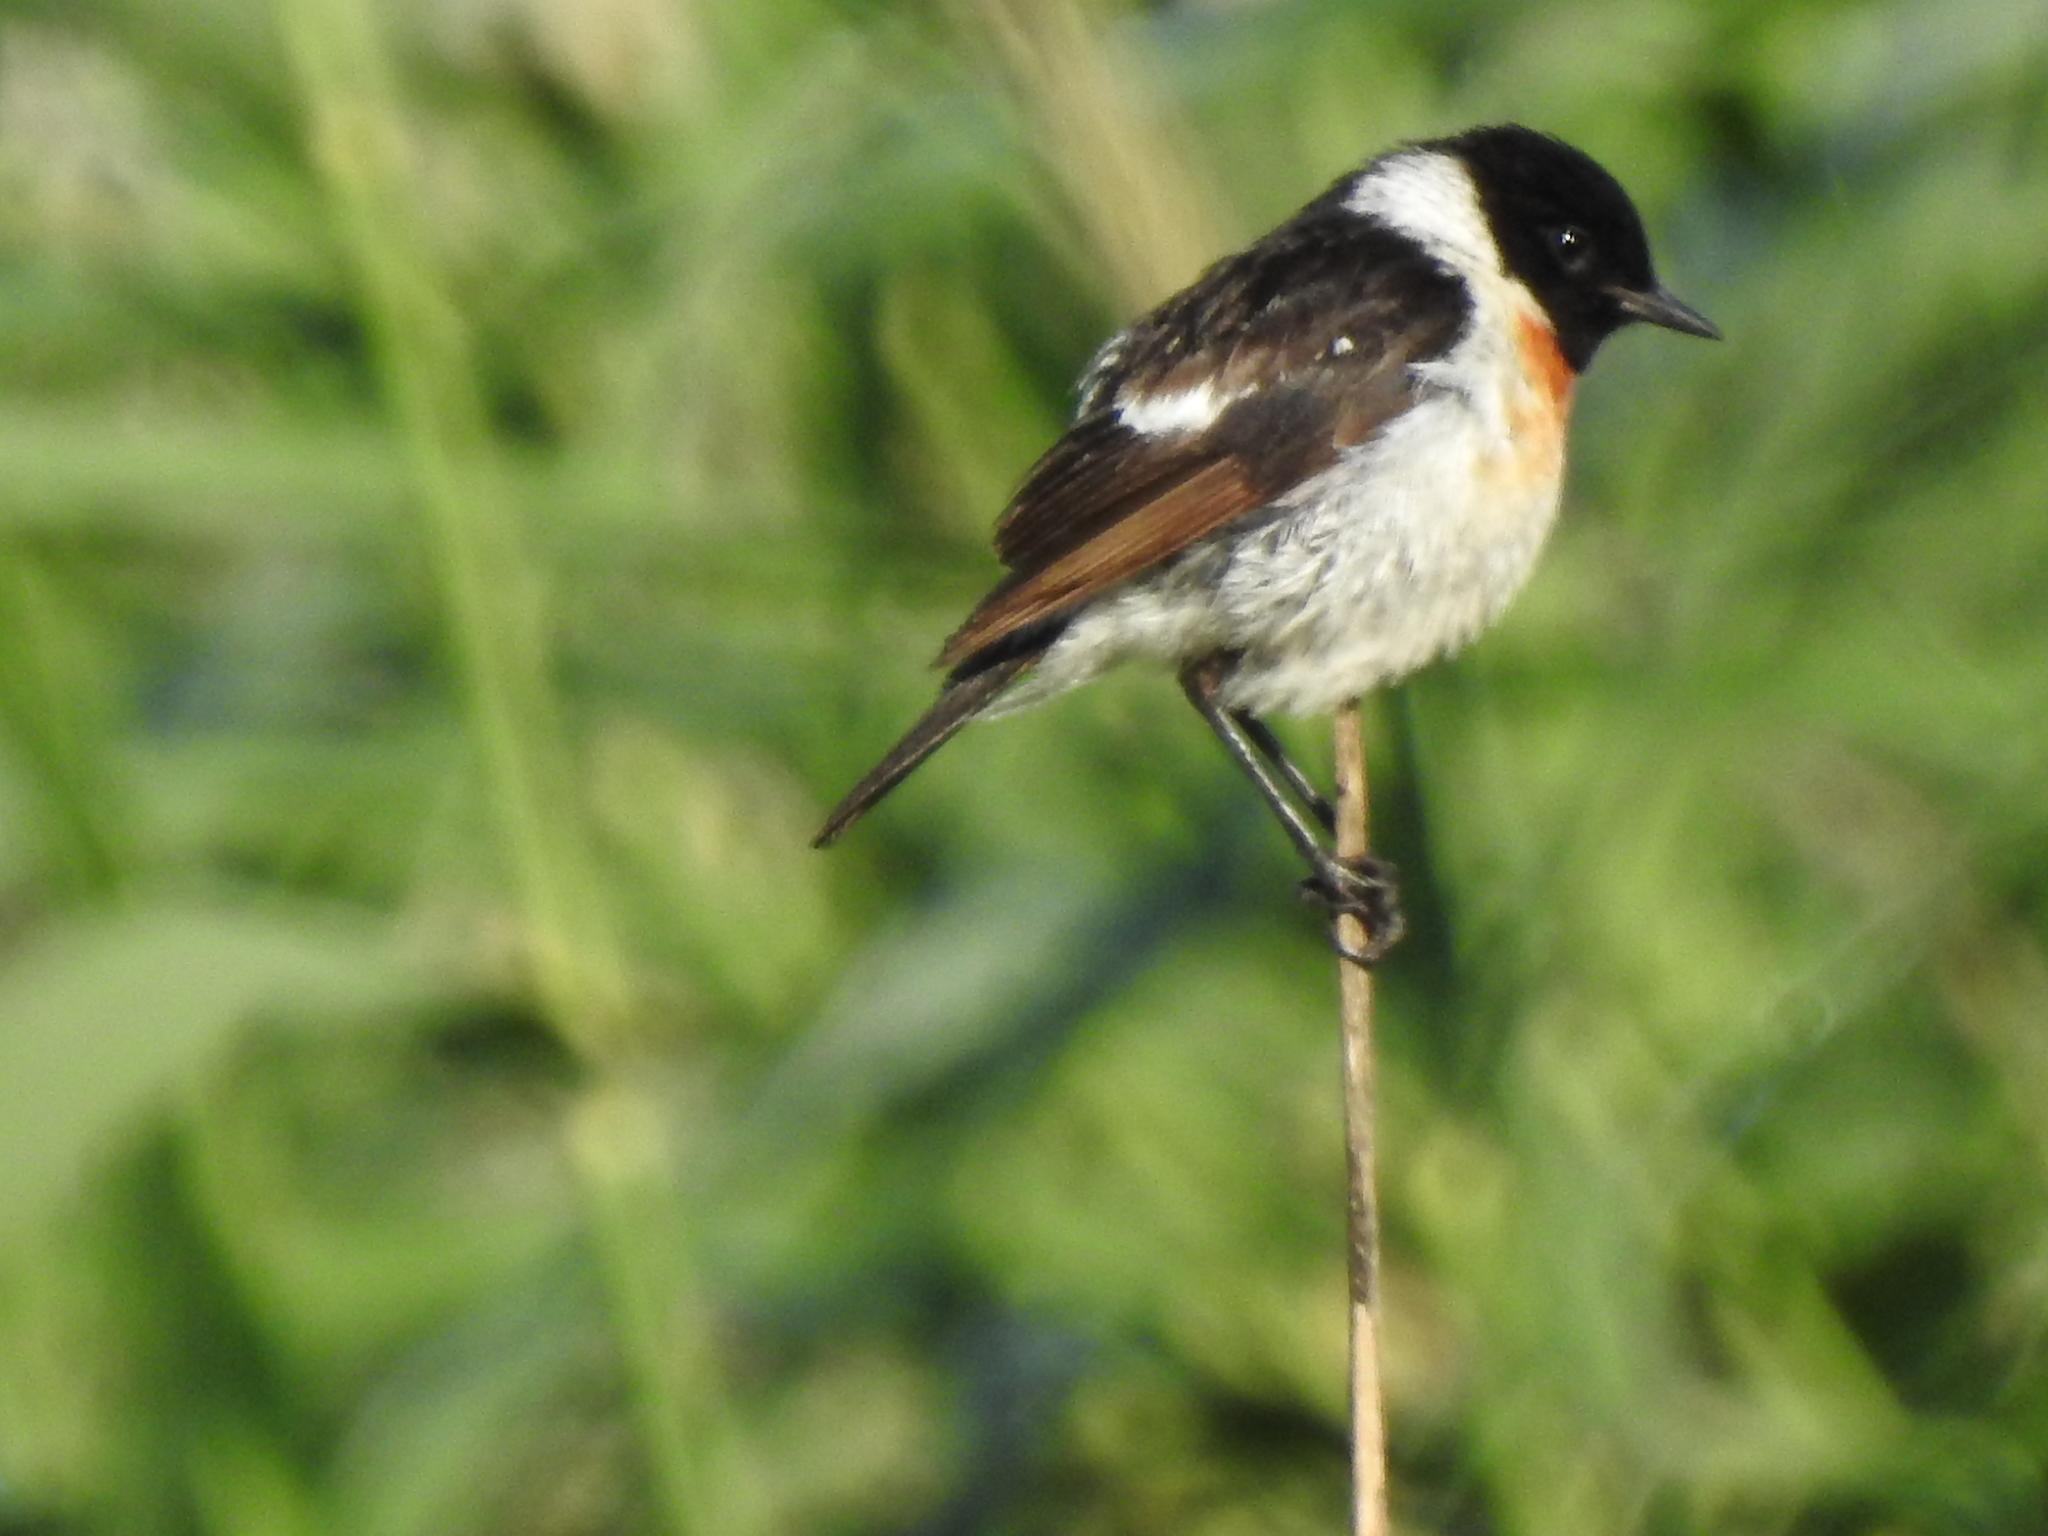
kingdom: Animalia
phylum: Chordata
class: Aves
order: Passeriformes
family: Muscicapidae
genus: Saxicola
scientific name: Saxicola maurus
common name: Siberian stonechat
